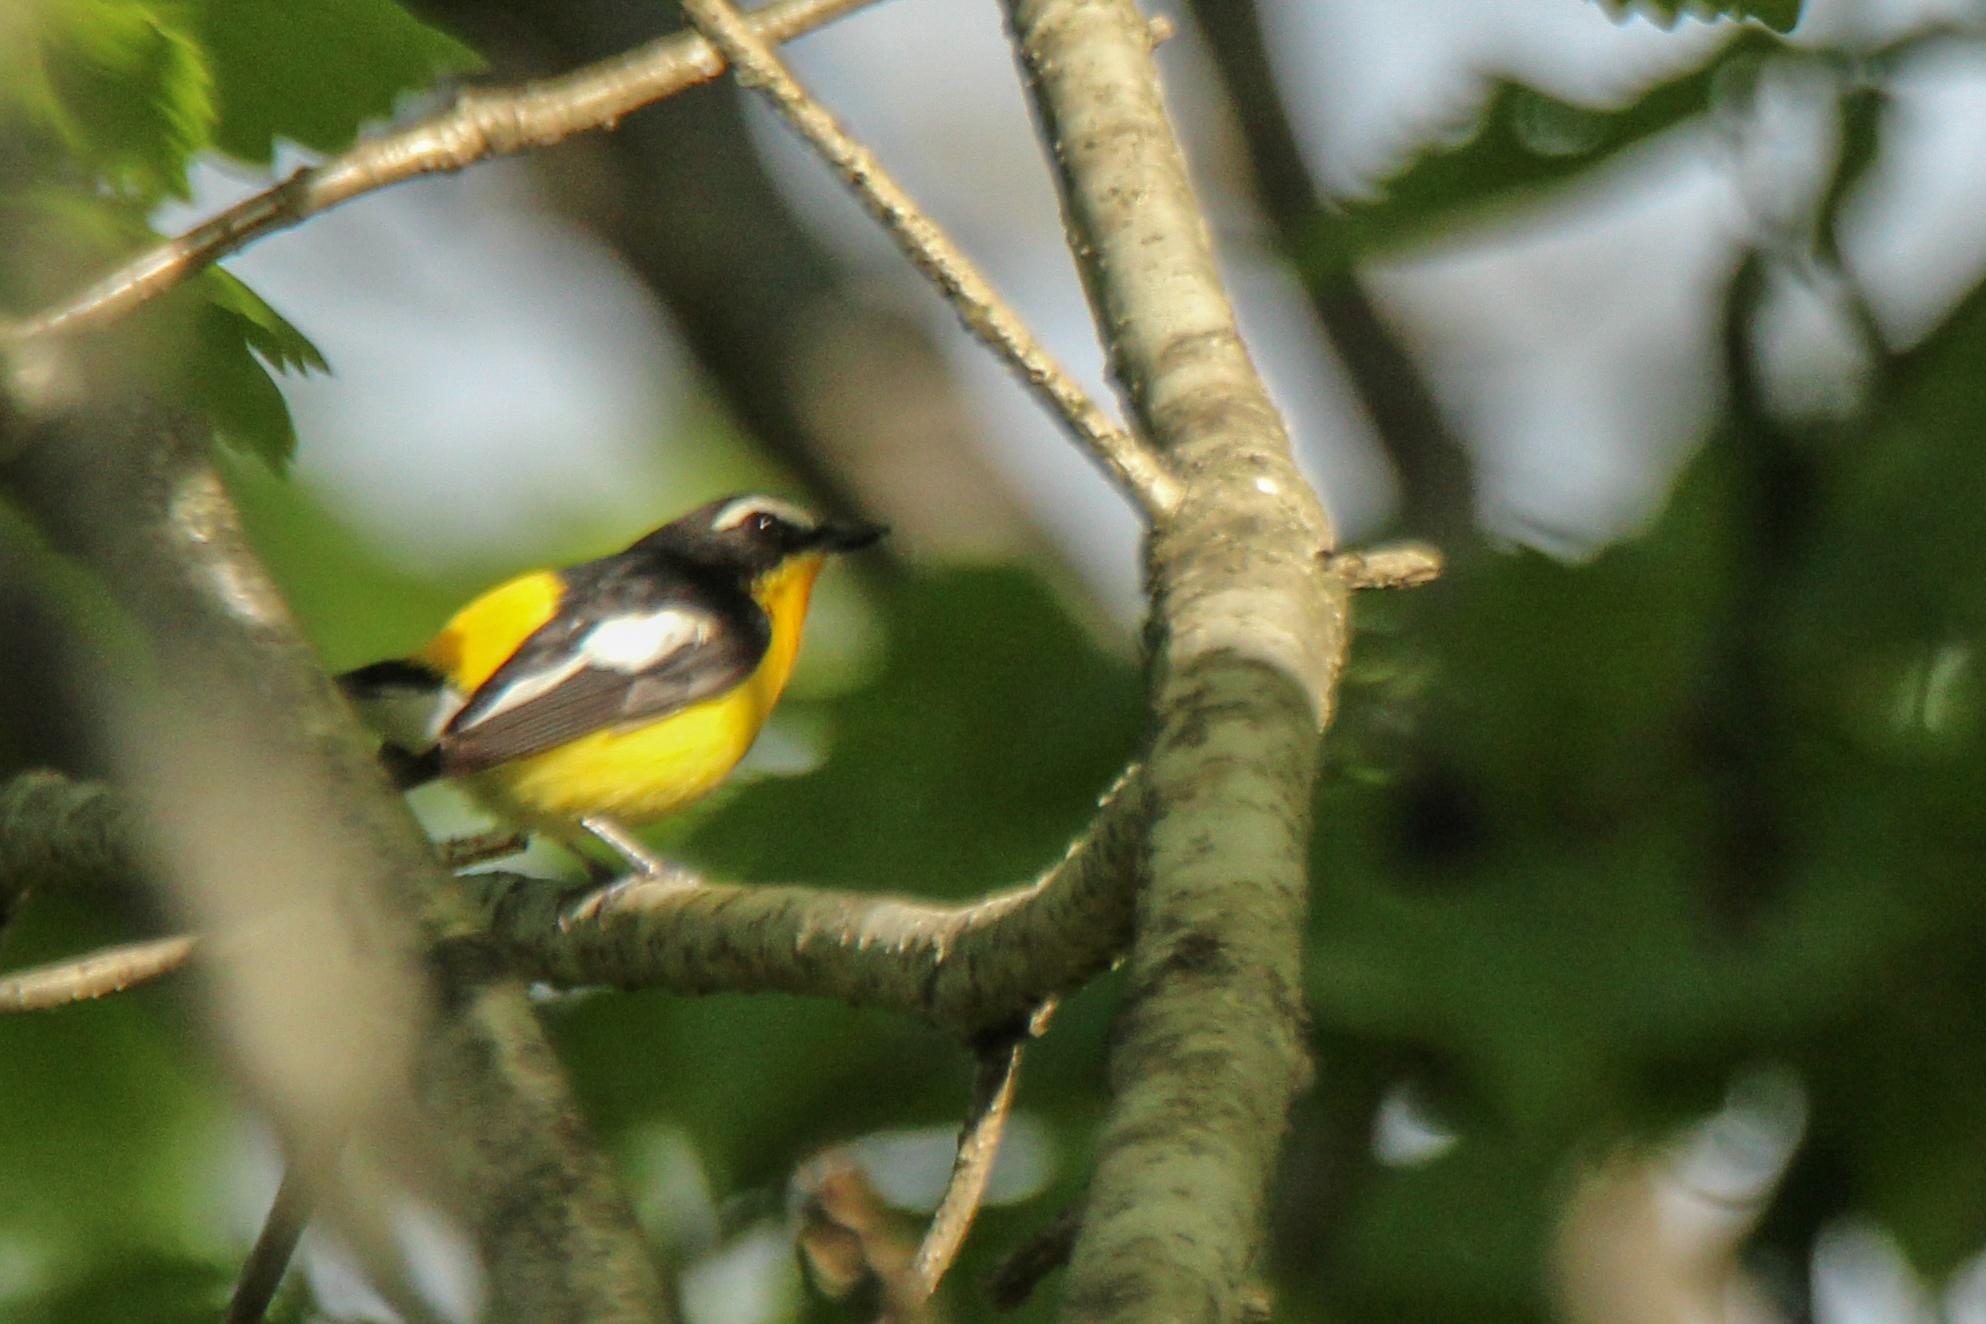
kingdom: Animalia
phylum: Chordata
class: Aves
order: Passeriformes
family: Muscicapidae
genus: Ficedula
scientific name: Ficedula zanthopygia
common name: Yellow-rumped flycatcher
